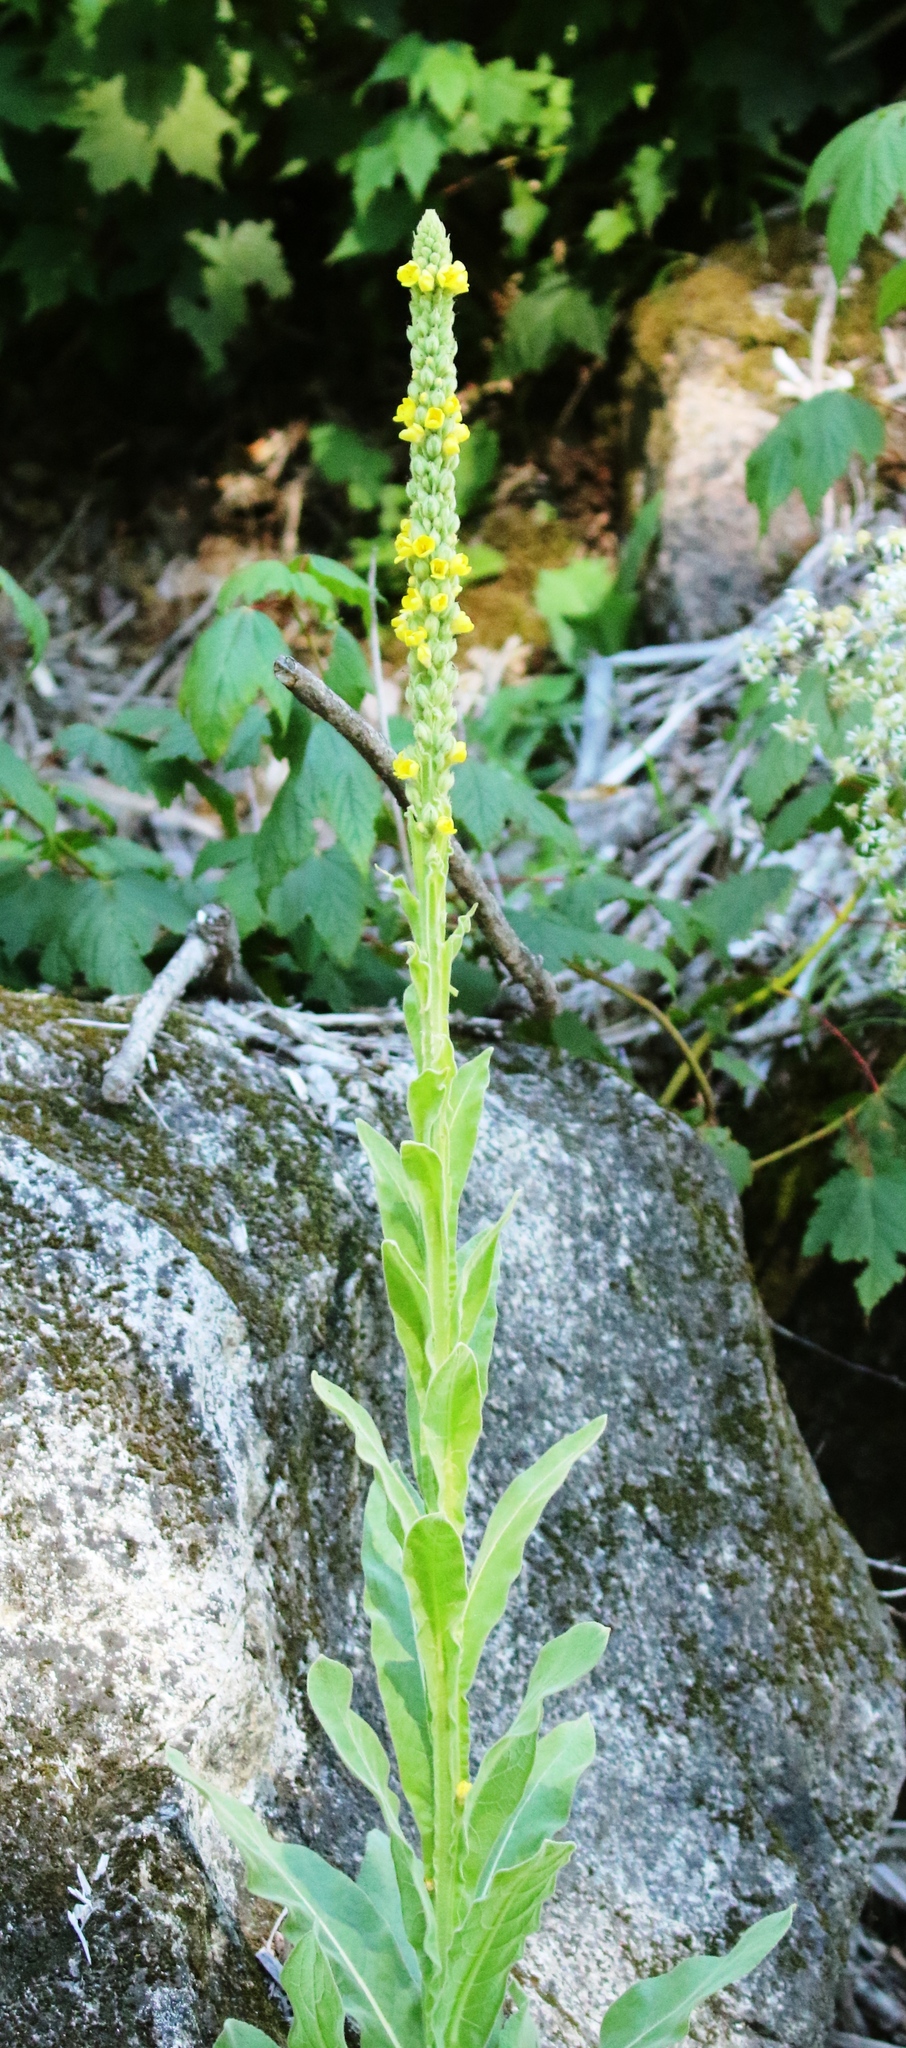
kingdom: Plantae
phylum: Tracheophyta
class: Magnoliopsida
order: Lamiales
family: Scrophulariaceae
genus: Verbascum
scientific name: Verbascum thapsus
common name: Common mullein
